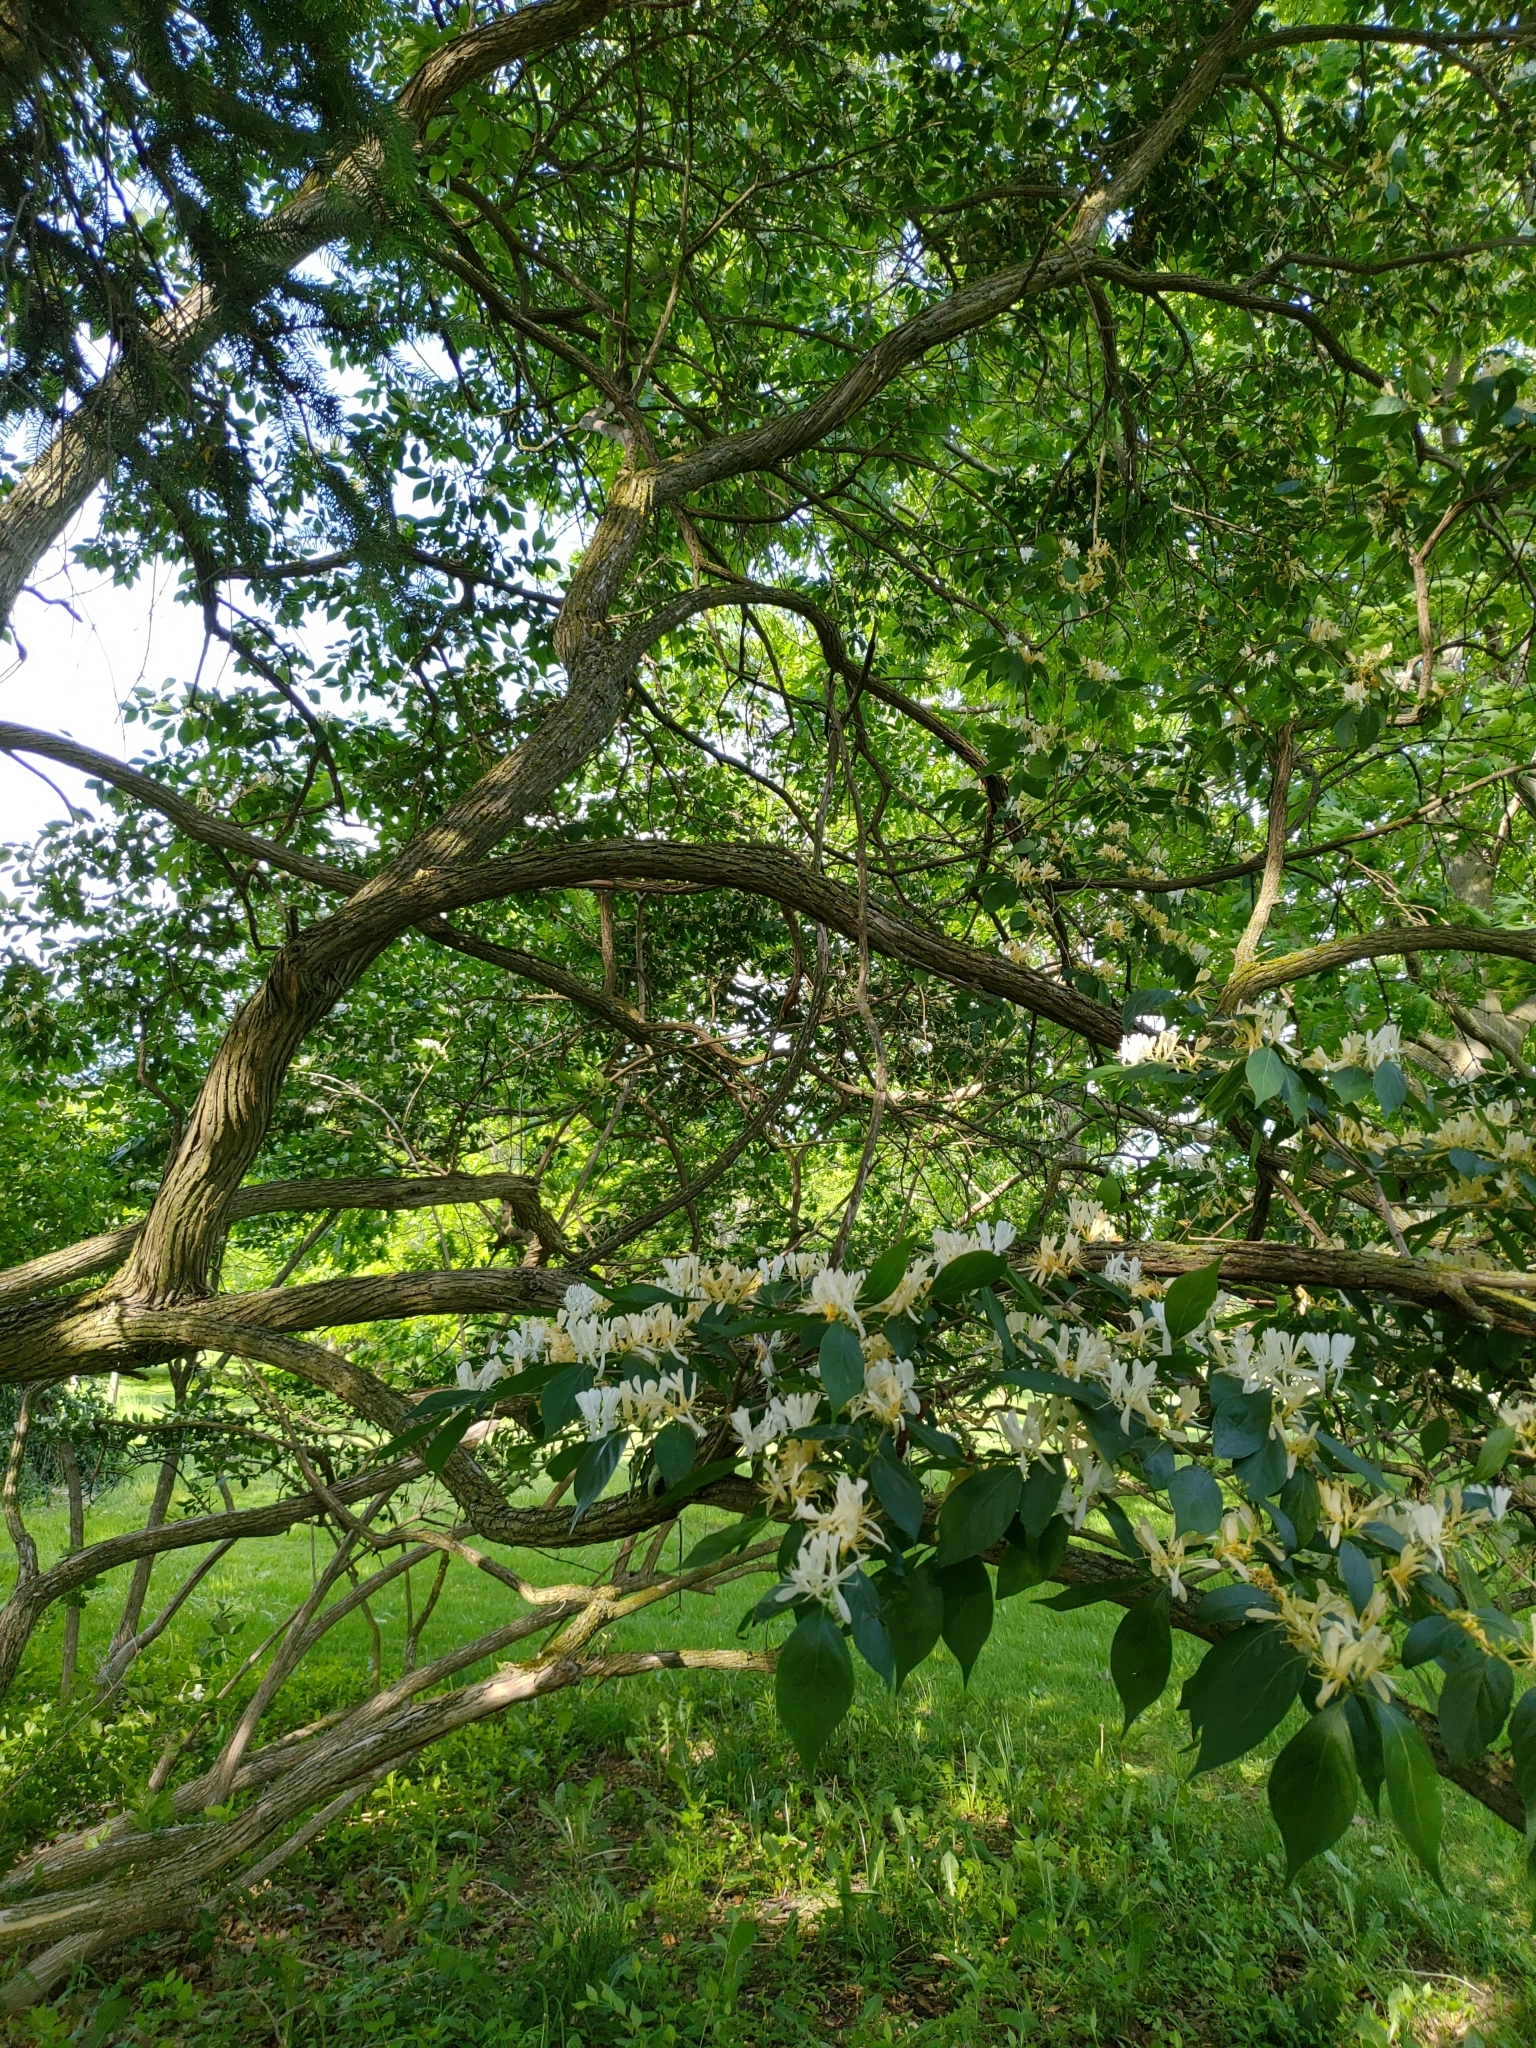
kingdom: Plantae
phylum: Tracheophyta
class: Magnoliopsida
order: Dipsacales
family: Caprifoliaceae
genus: Lonicera
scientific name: Lonicera maackii
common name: Amur honeysuckle
